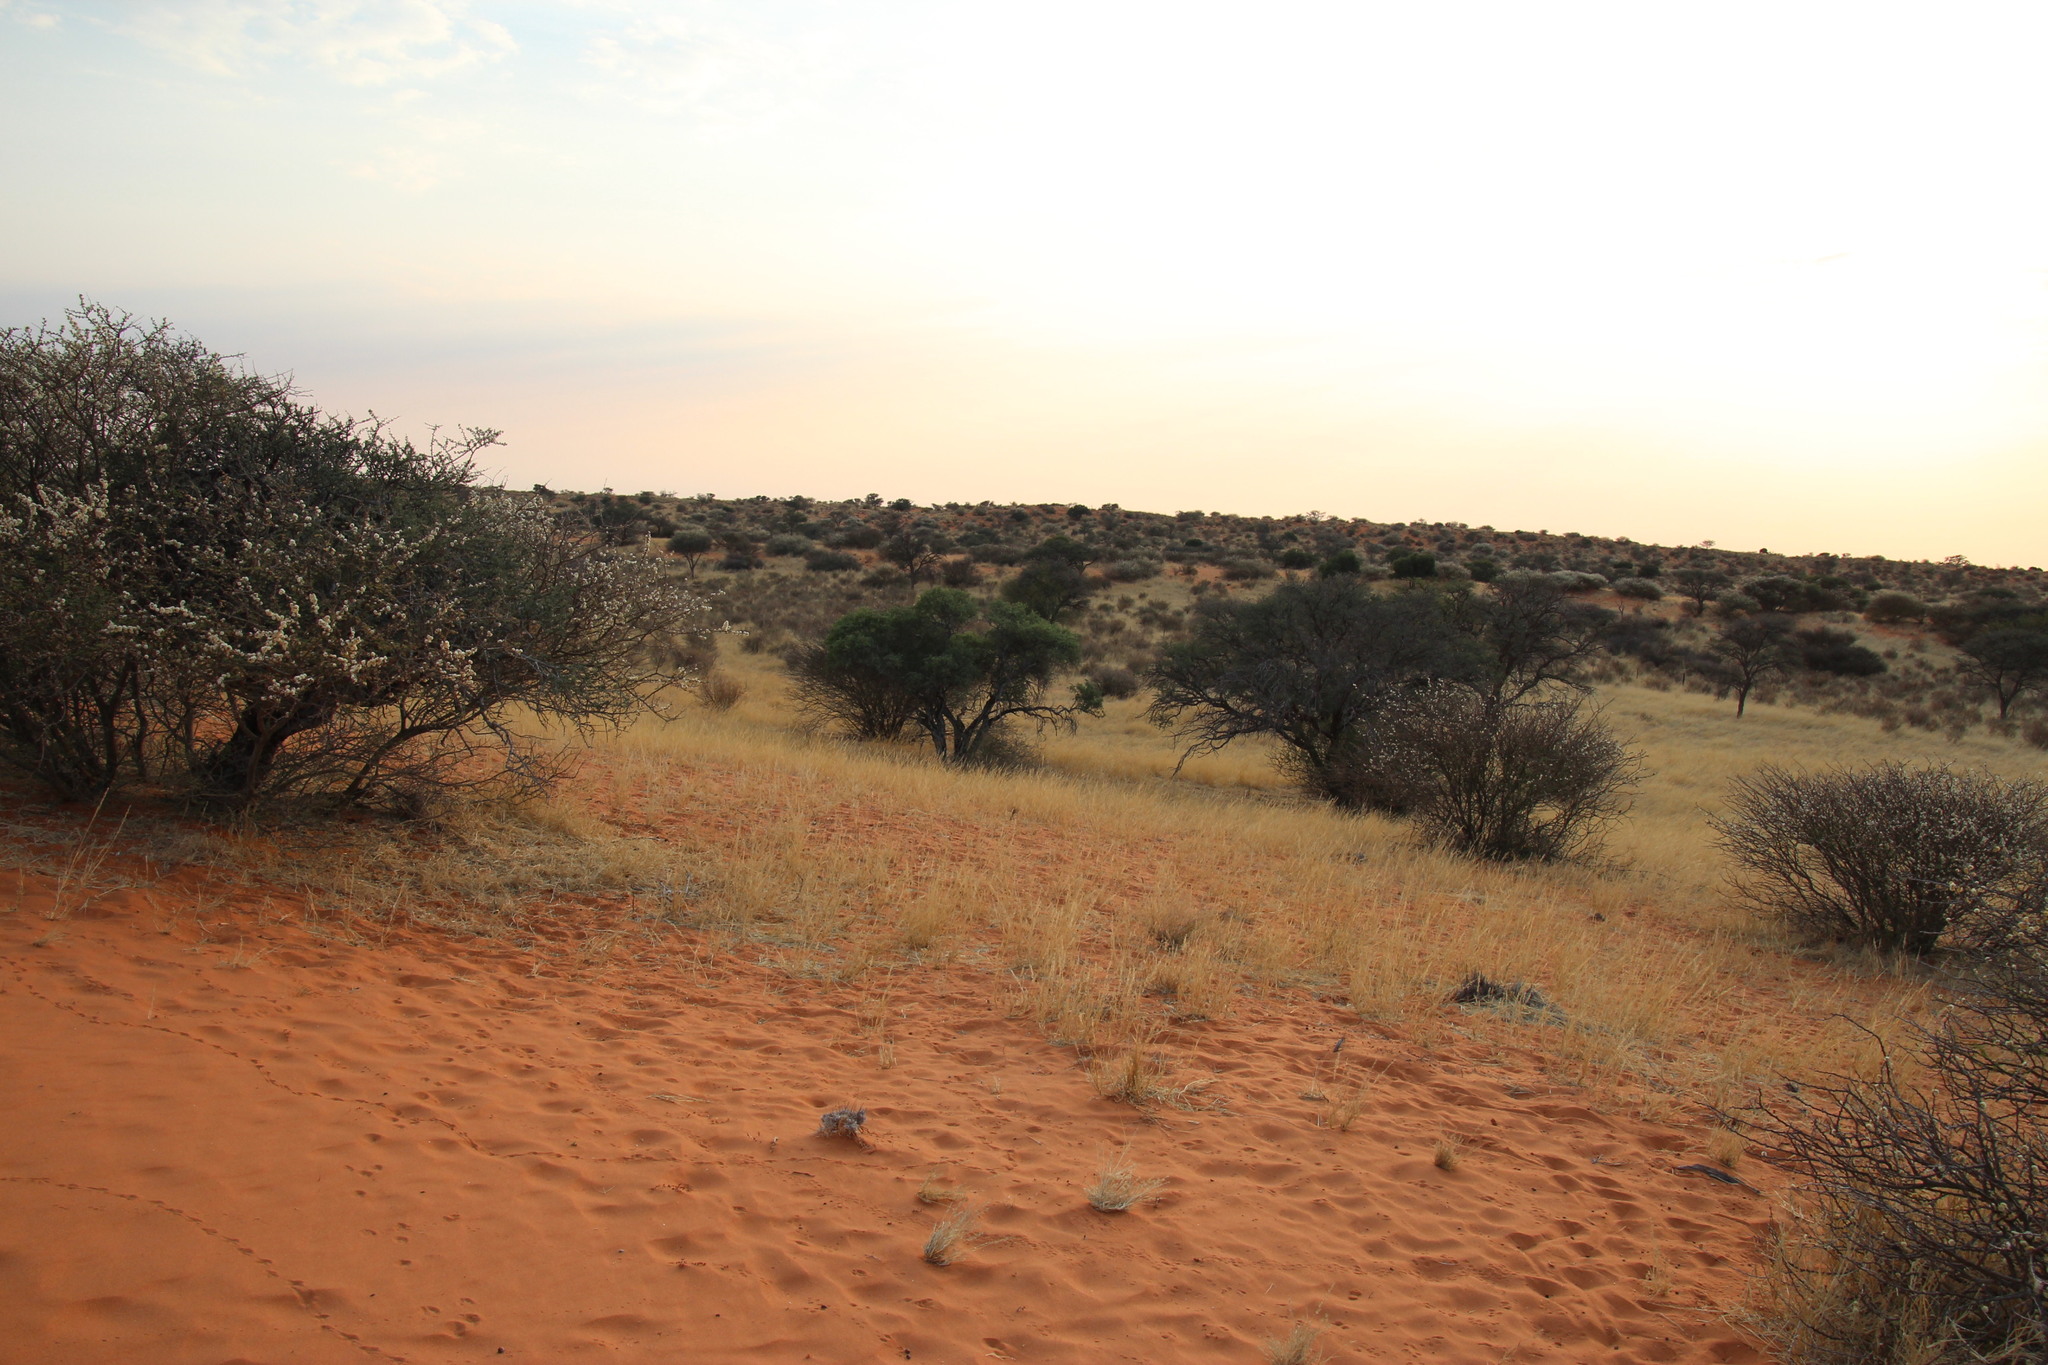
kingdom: Plantae
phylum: Tracheophyta
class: Magnoliopsida
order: Brassicales
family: Capparaceae
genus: Boscia
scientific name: Boscia albitrunca
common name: Caper bush
